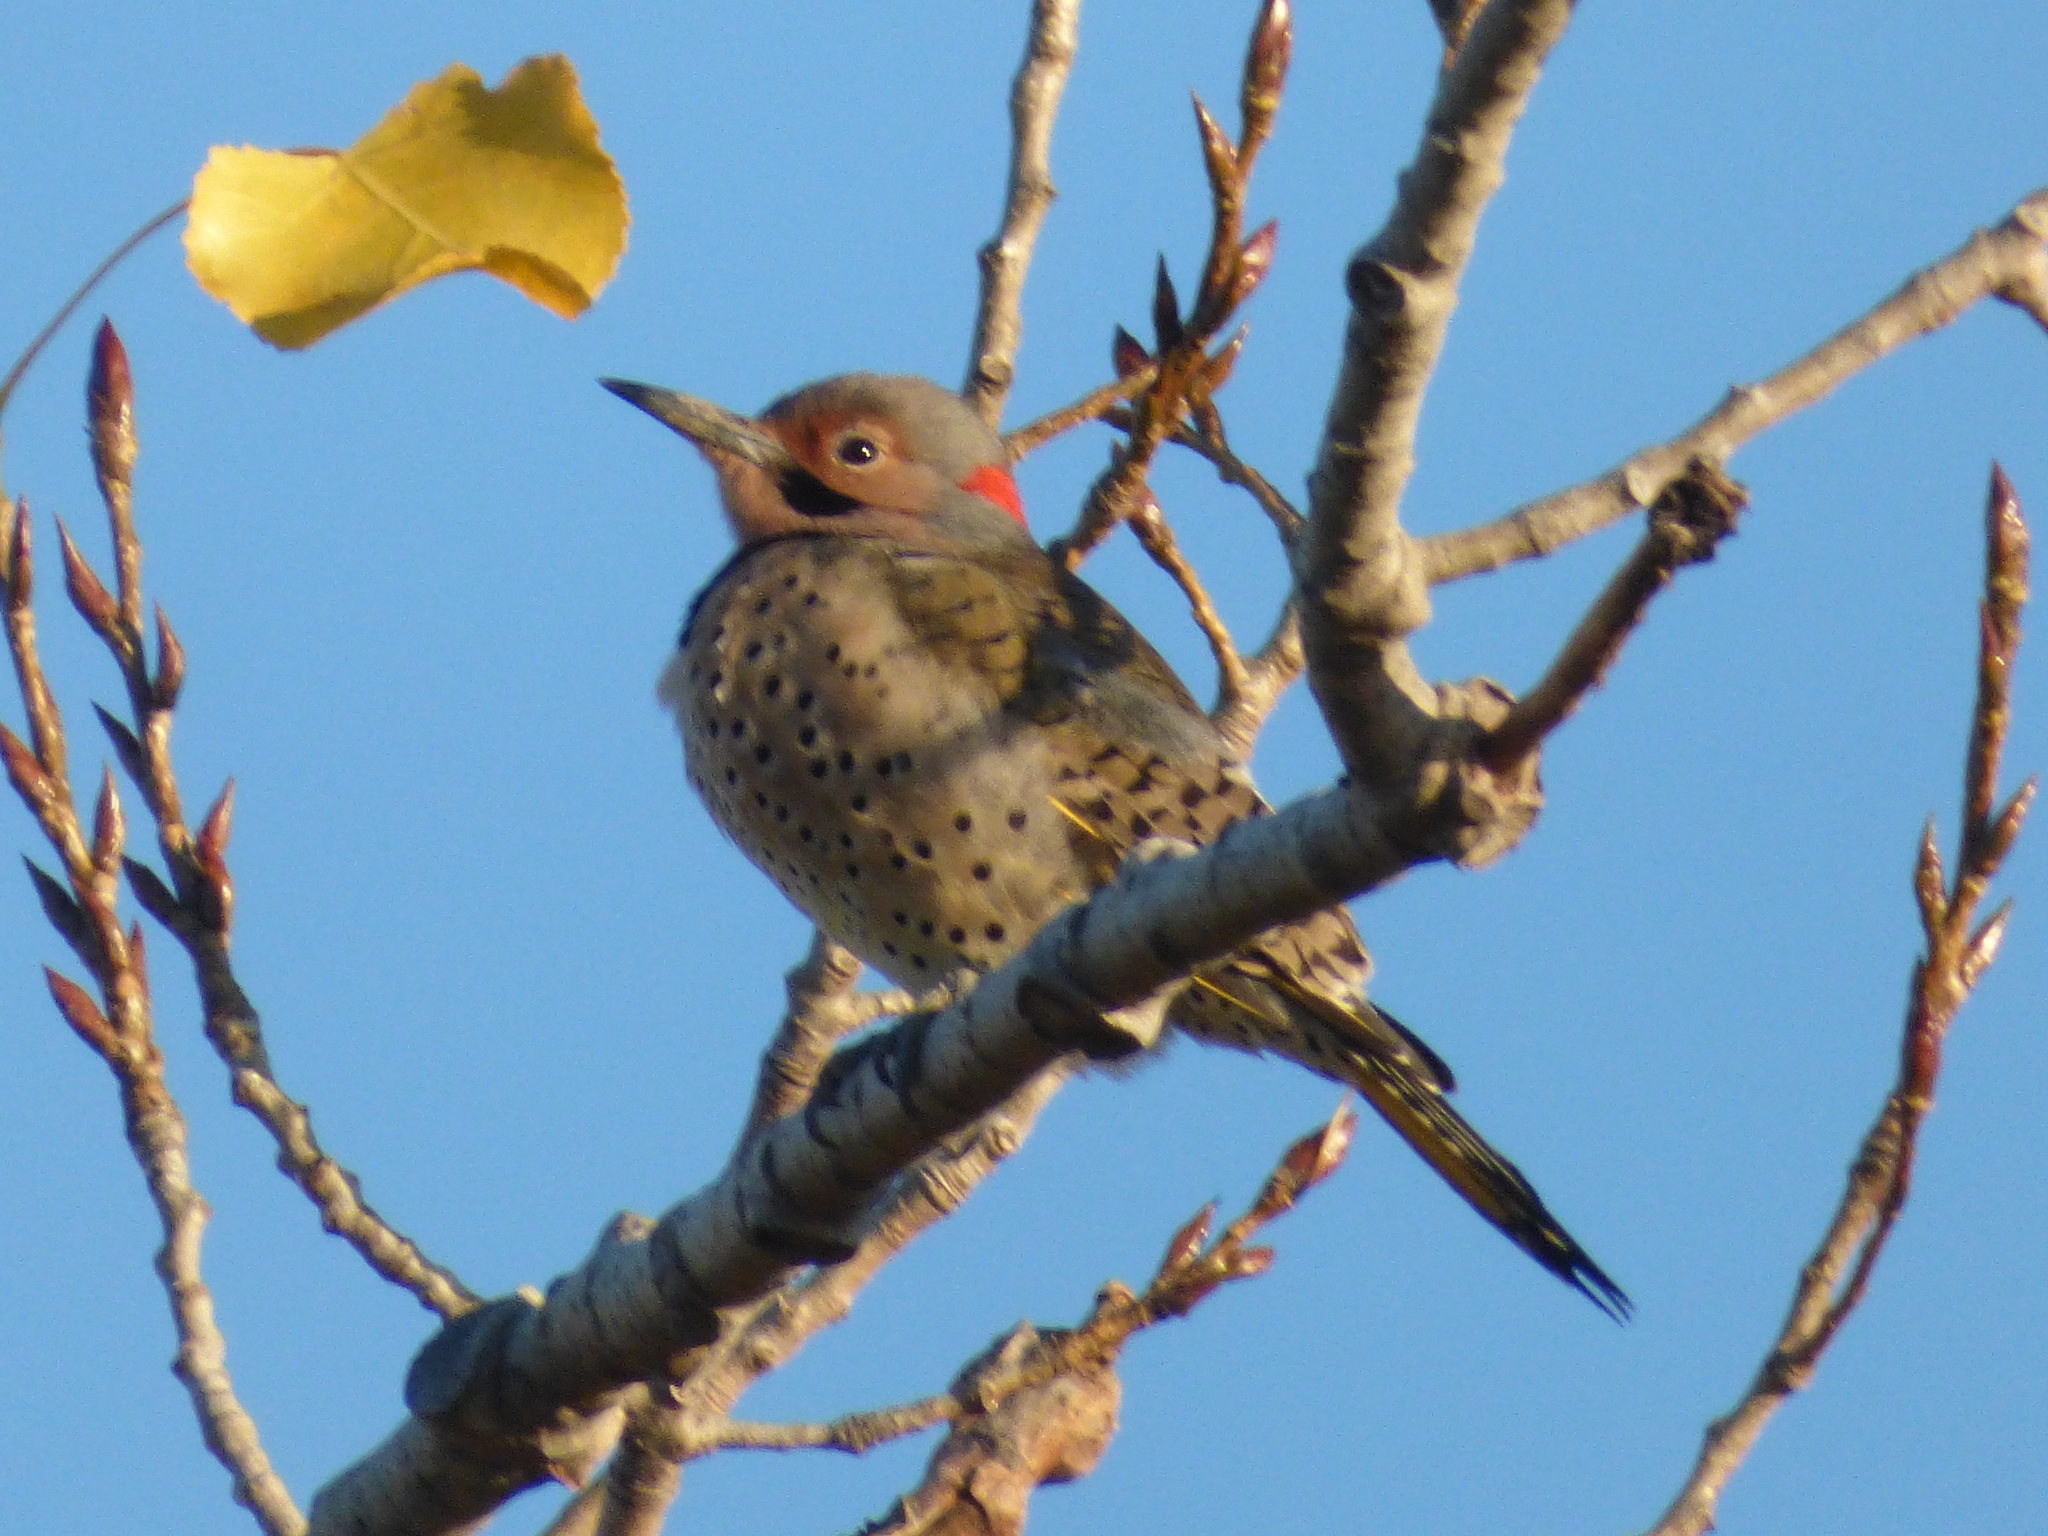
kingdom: Animalia
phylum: Chordata
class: Aves
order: Piciformes
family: Picidae
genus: Colaptes
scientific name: Colaptes auratus
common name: Northern flicker
